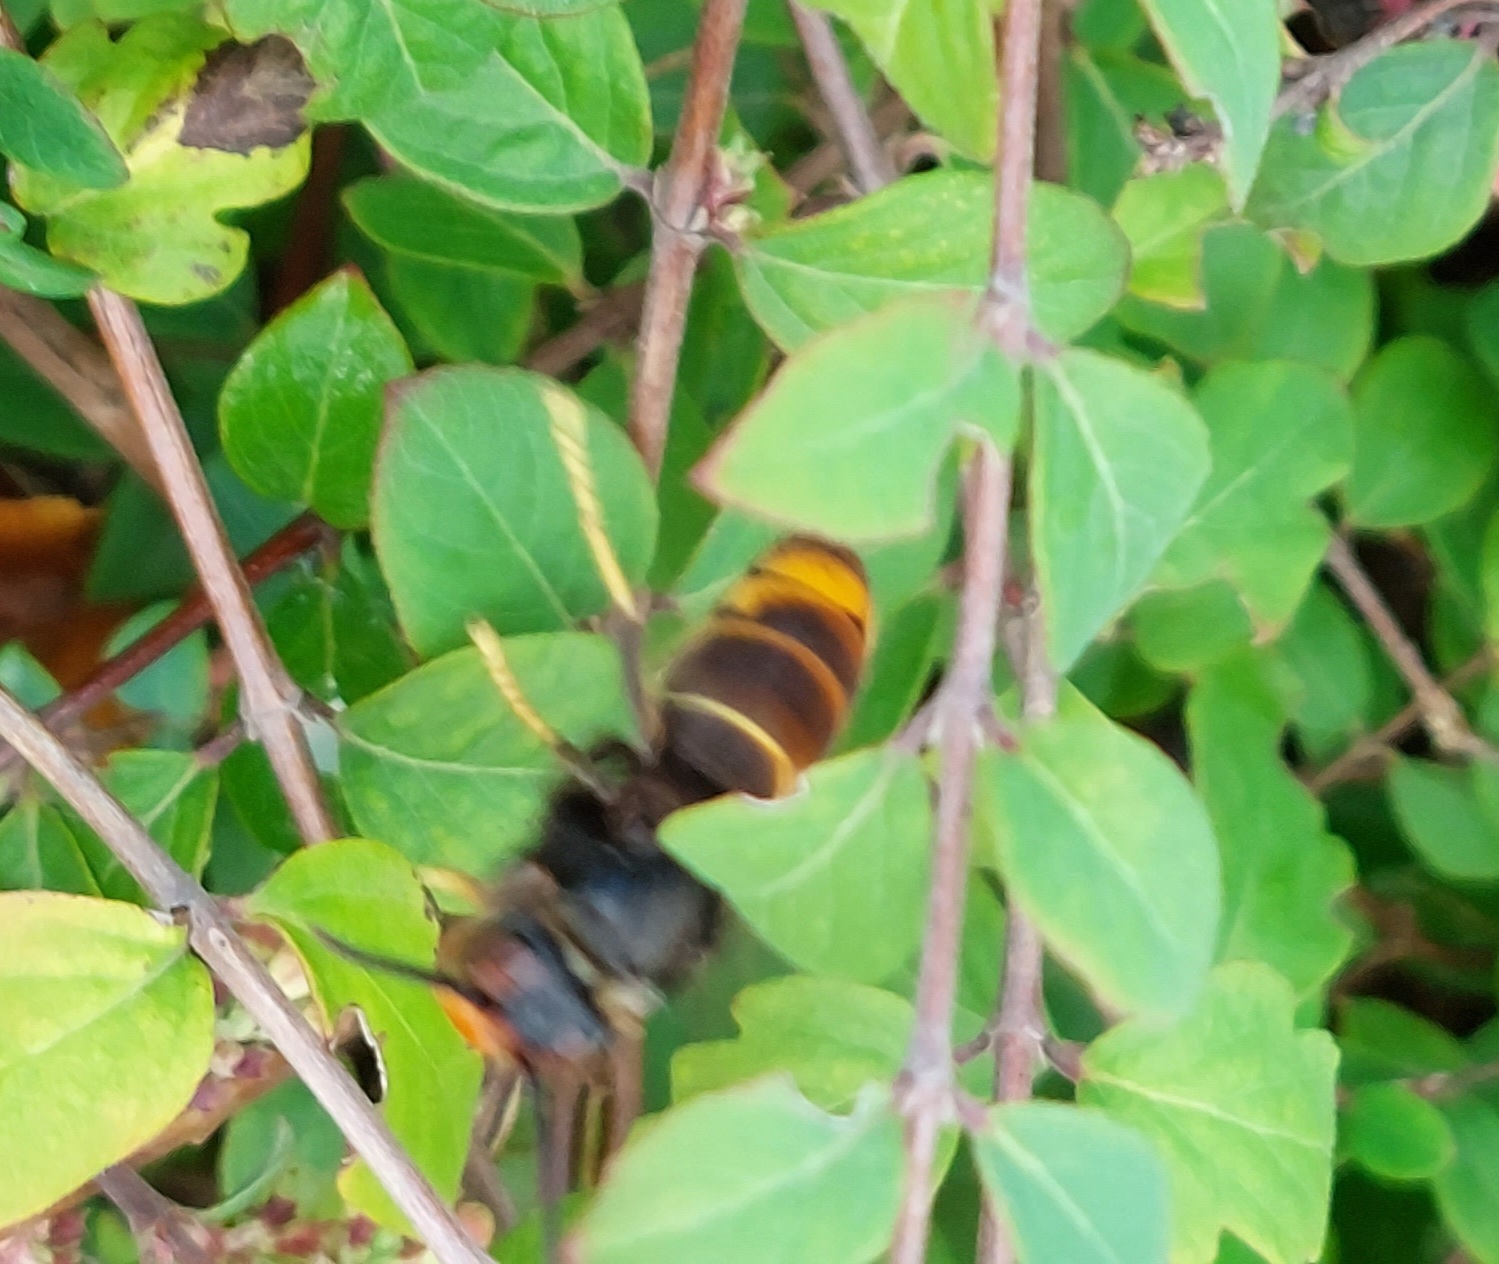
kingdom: Animalia
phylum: Arthropoda
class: Insecta
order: Hymenoptera
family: Vespidae
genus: Vespa
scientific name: Vespa velutina
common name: Asian hornet
